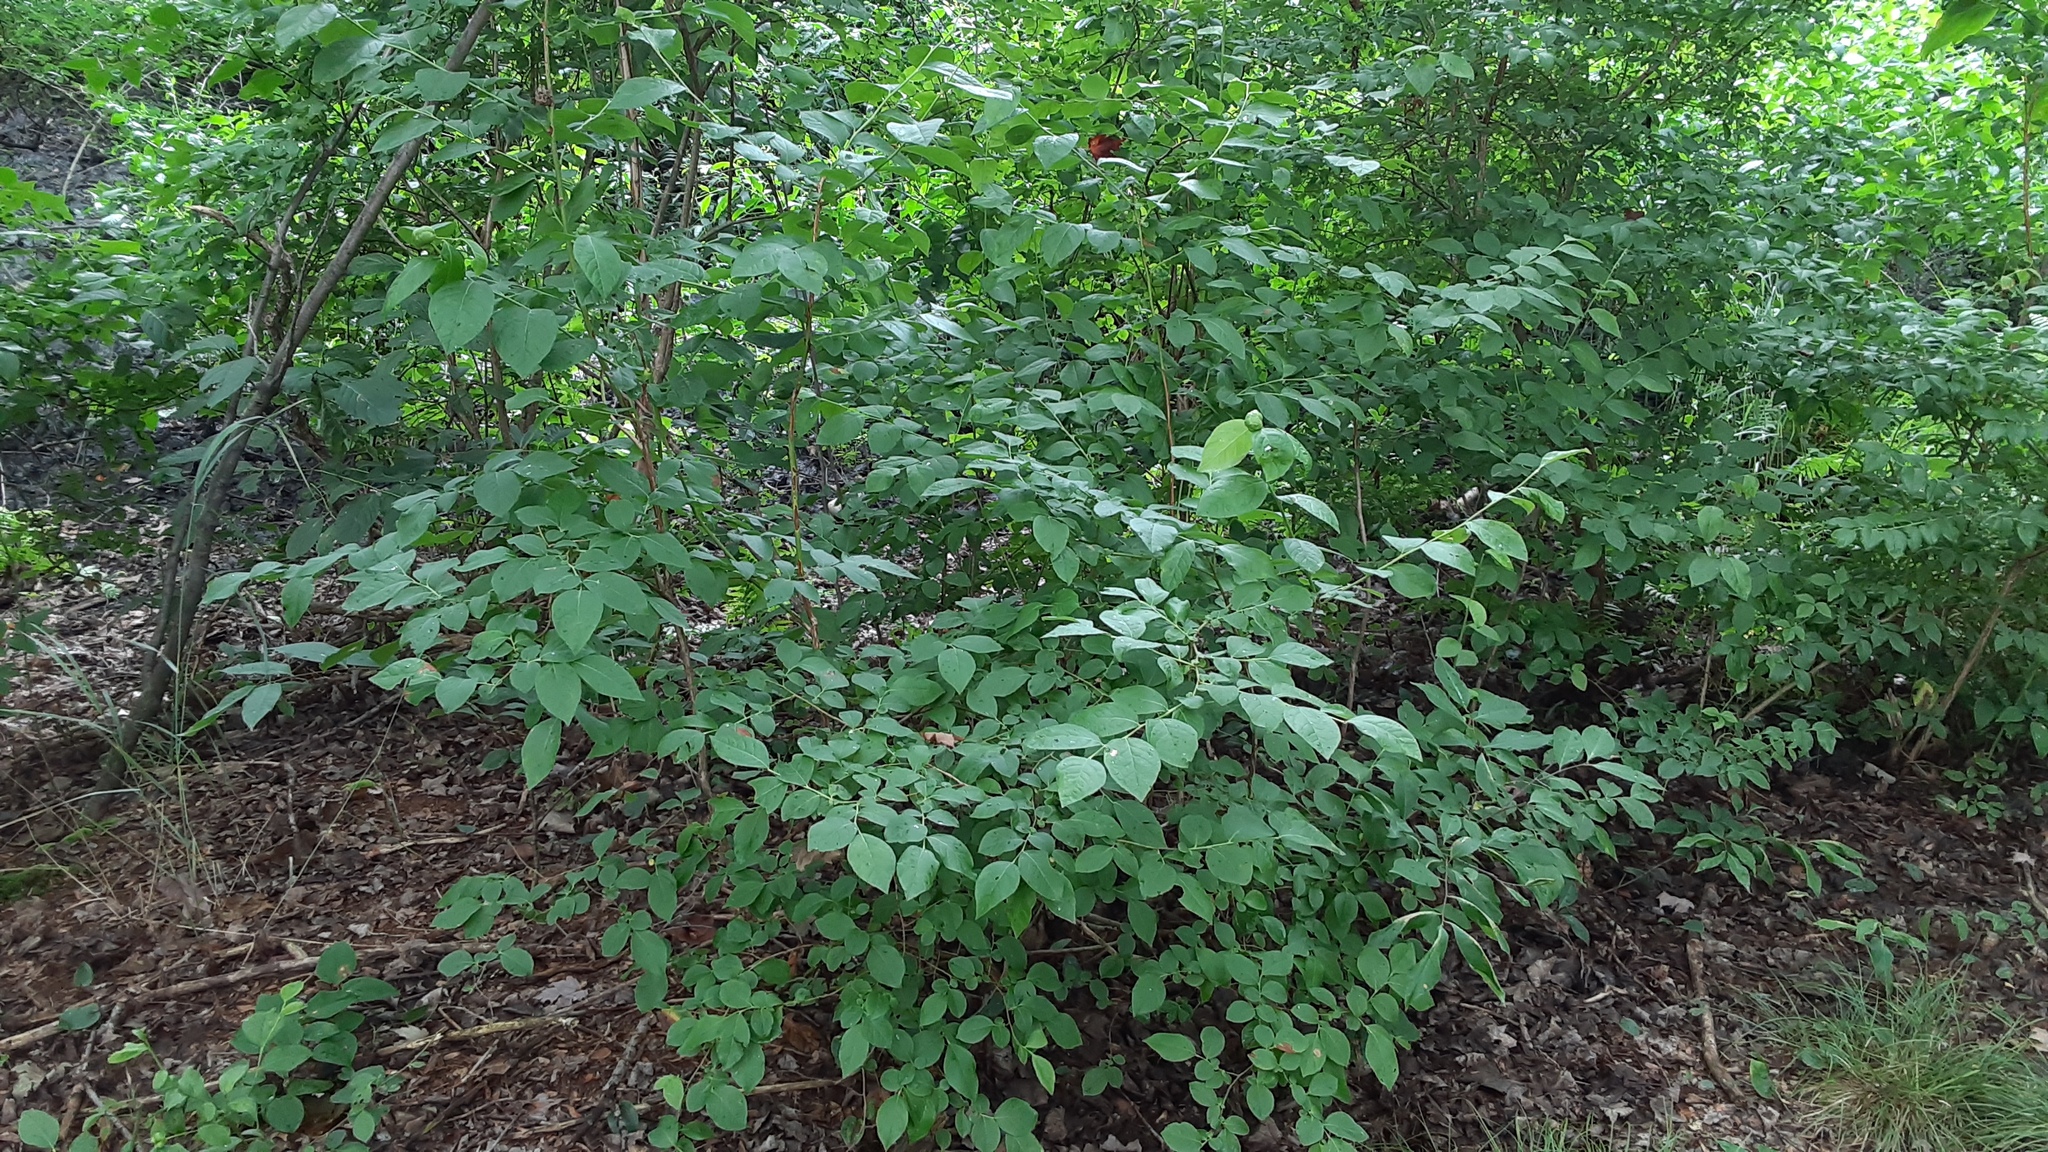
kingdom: Animalia
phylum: Arthropoda
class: Insecta
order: Hymenoptera
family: Pteromalidae
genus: Hemadas
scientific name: Hemadas nubilipennis
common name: Blueberry stem gall wasp
